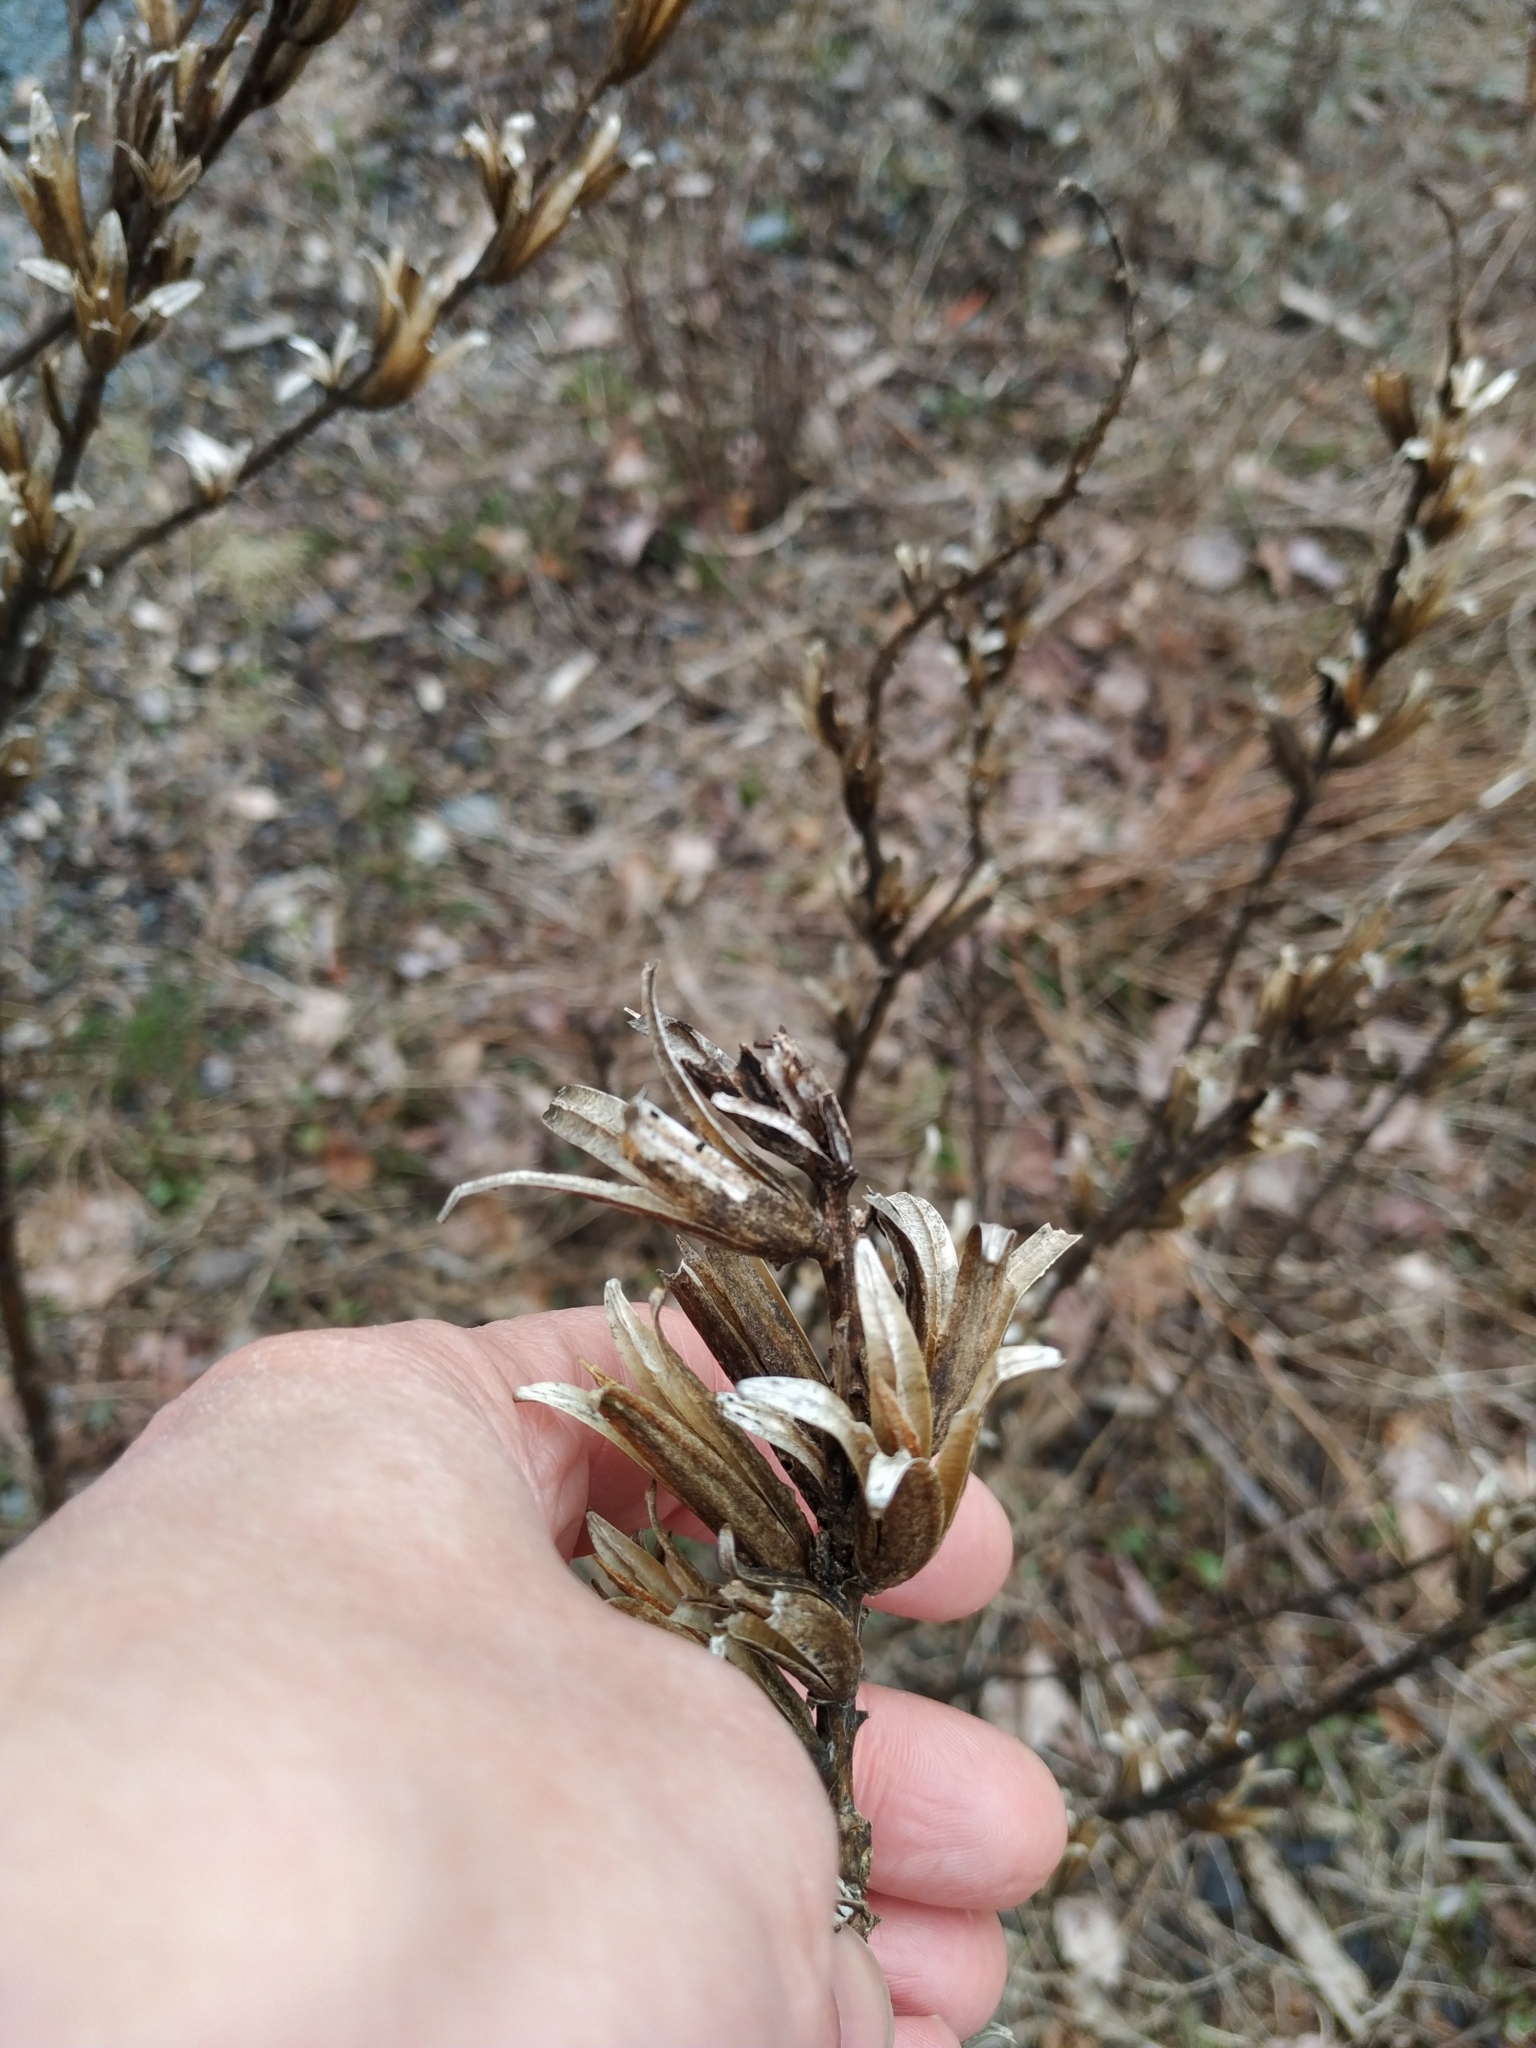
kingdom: Plantae
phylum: Tracheophyta
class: Magnoliopsida
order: Myrtales
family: Onagraceae
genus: Oenothera
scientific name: Oenothera biennis
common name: Common evening-primrose
